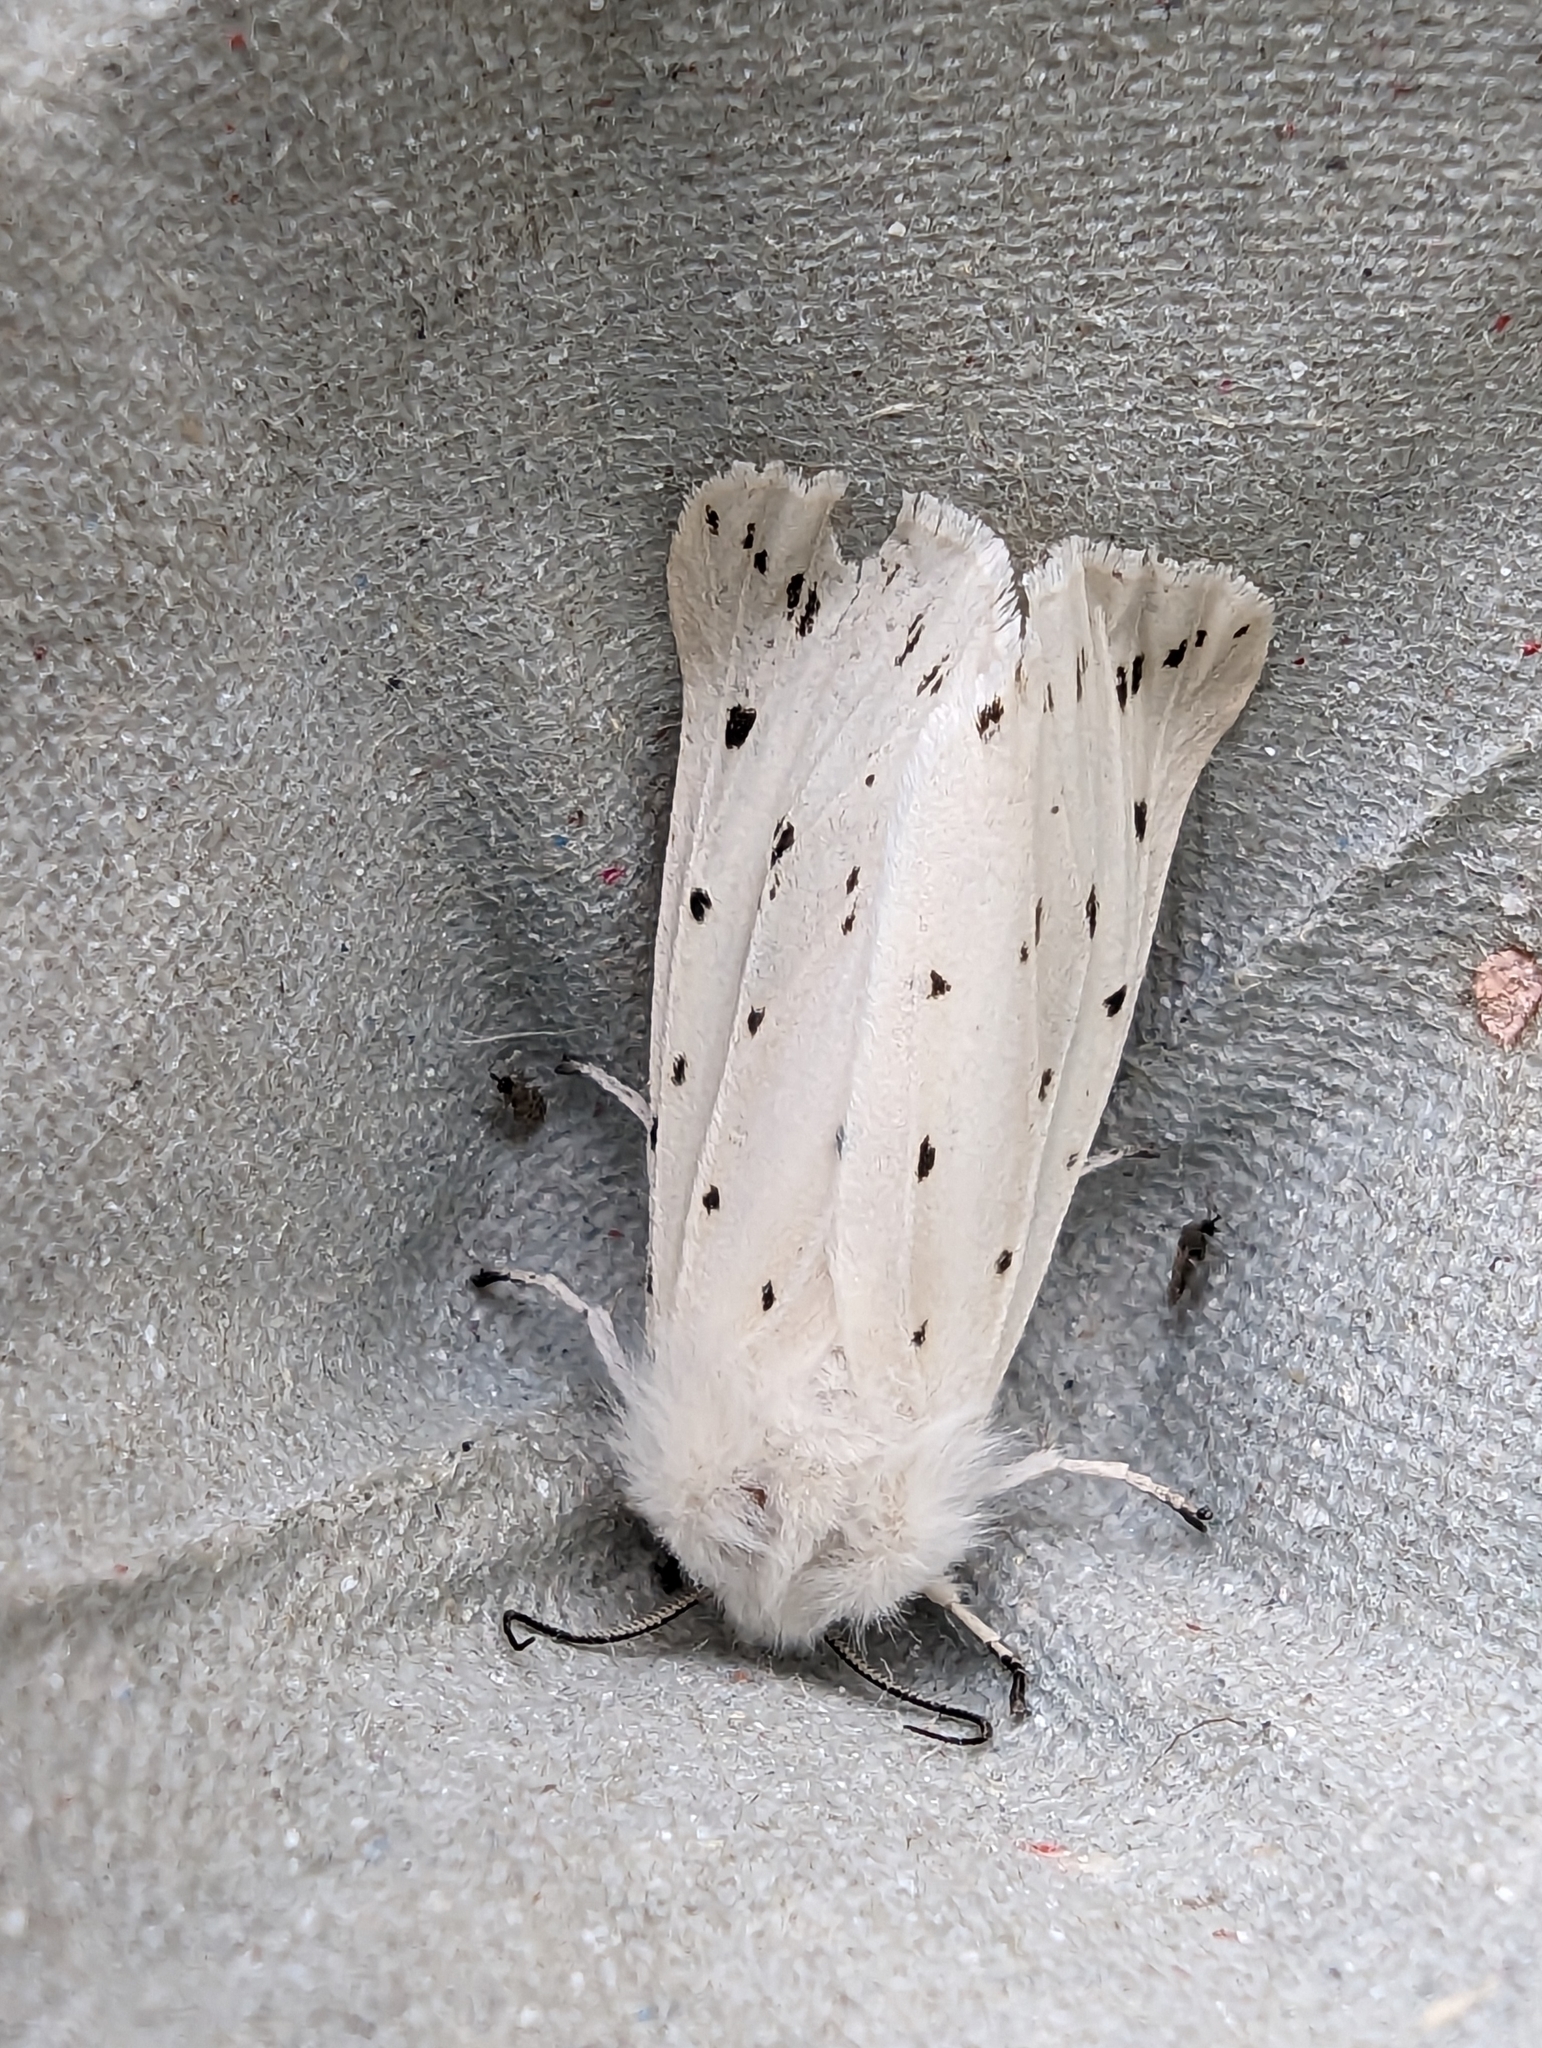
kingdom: Animalia
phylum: Arthropoda
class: Insecta
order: Lepidoptera
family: Erebidae
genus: Spilosoma
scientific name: Spilosoma lubricipeda
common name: White ermine
